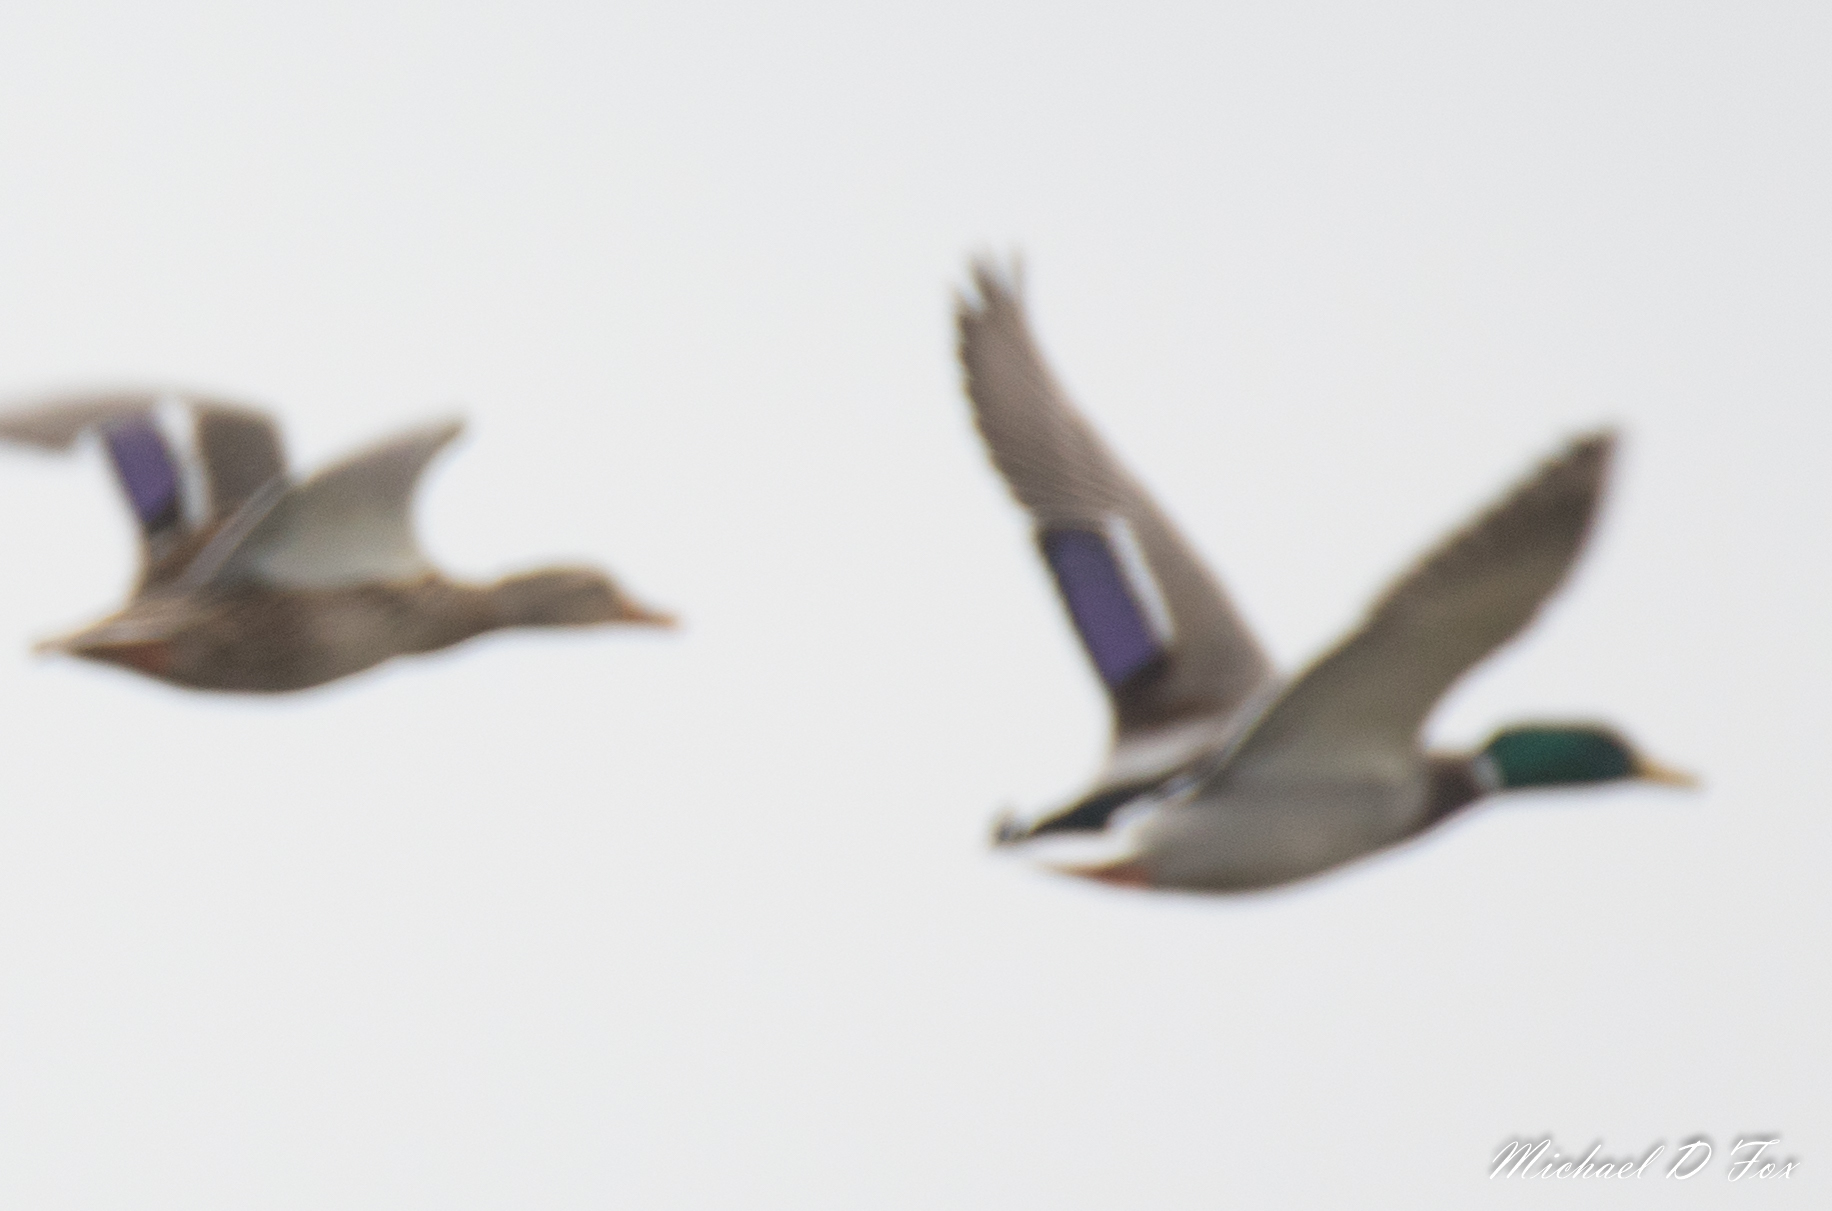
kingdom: Animalia
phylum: Chordata
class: Aves
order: Anseriformes
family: Anatidae
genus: Anas
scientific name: Anas platyrhynchos
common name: Mallard
